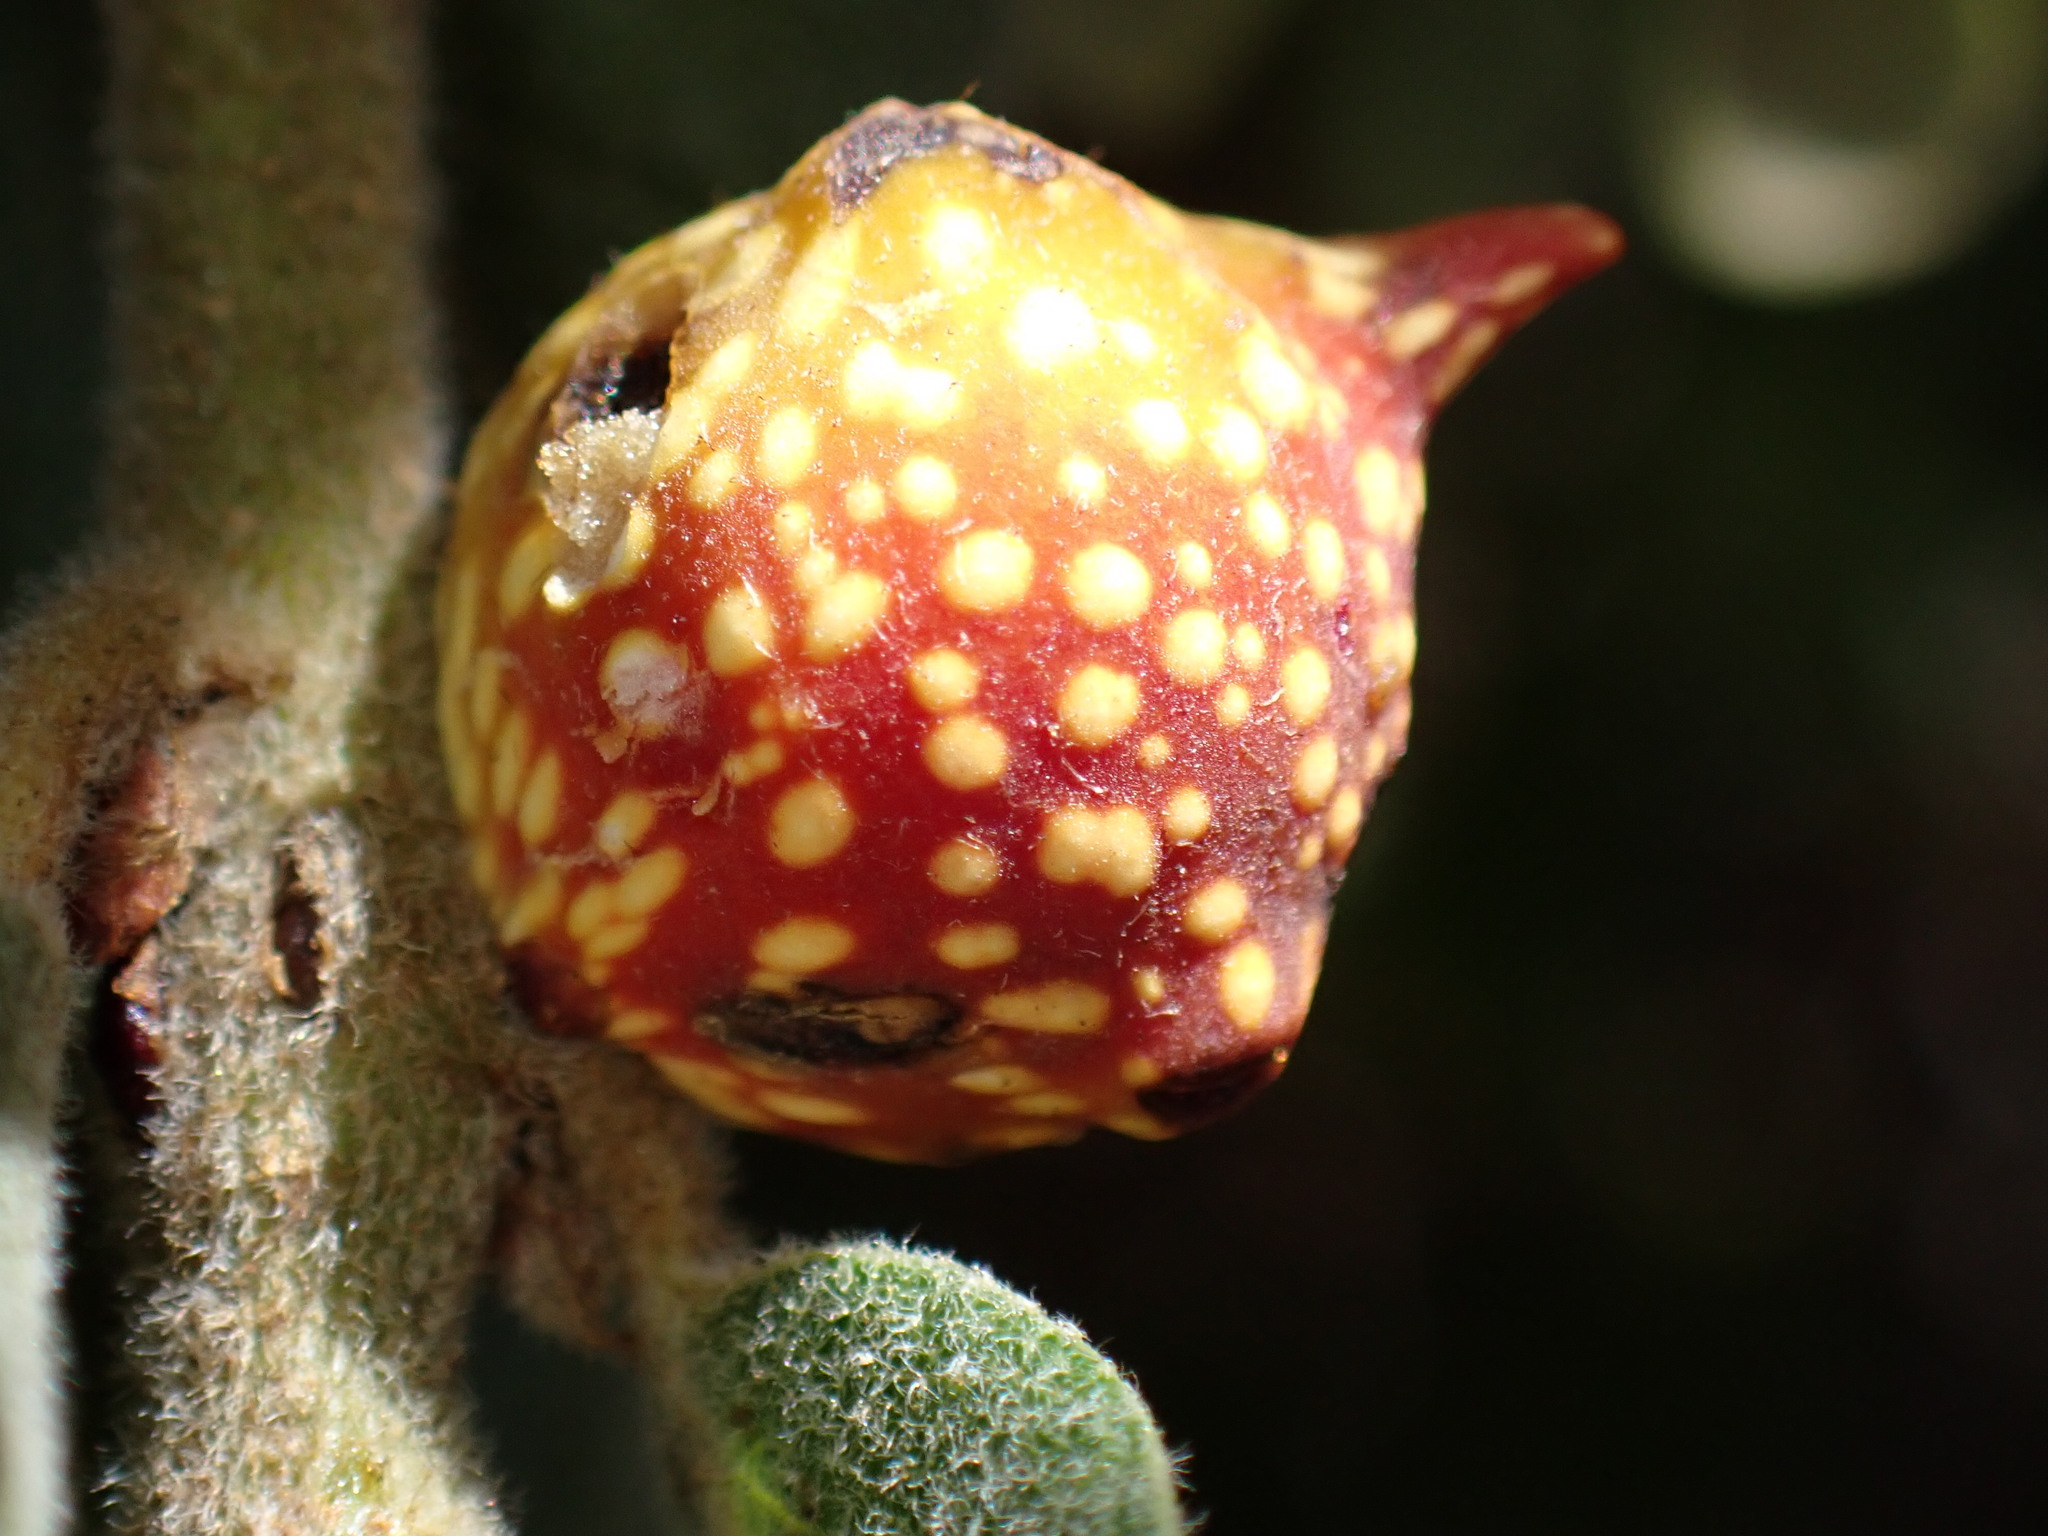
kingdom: Animalia
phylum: Arthropoda
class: Insecta
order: Hymenoptera
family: Cynipidae
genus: Burnettweldia
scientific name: Burnettweldia
